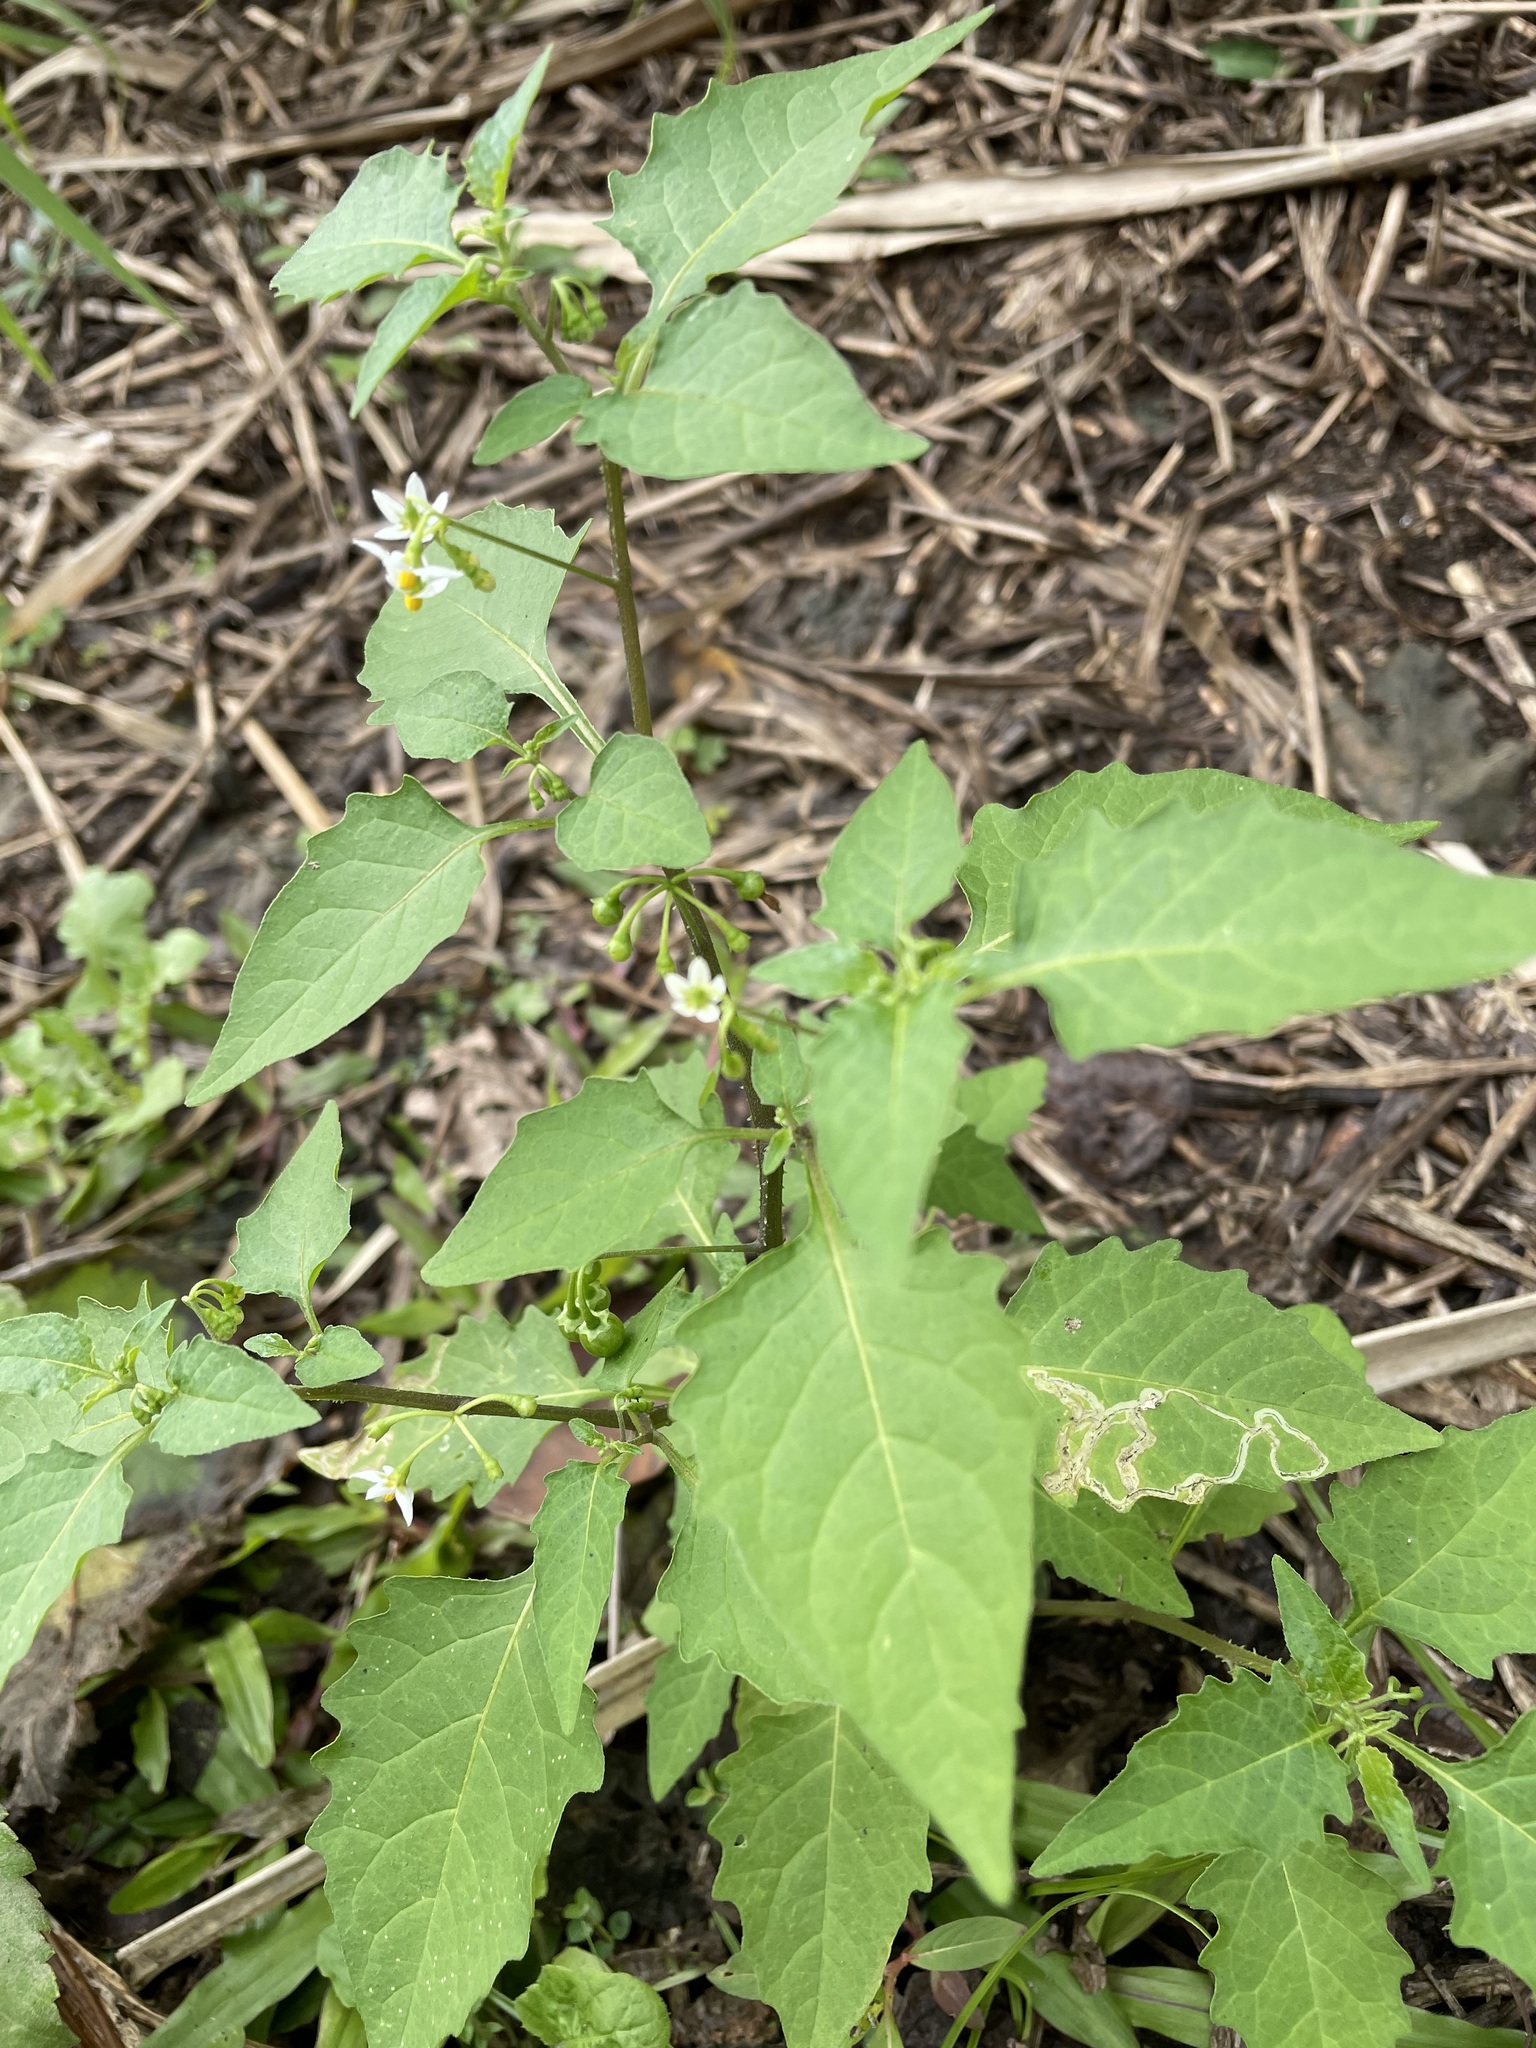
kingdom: Plantae
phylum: Tracheophyta
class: Magnoliopsida
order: Solanales
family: Solanaceae
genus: Solanum
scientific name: Solanum nigrum
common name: Black nightshade
